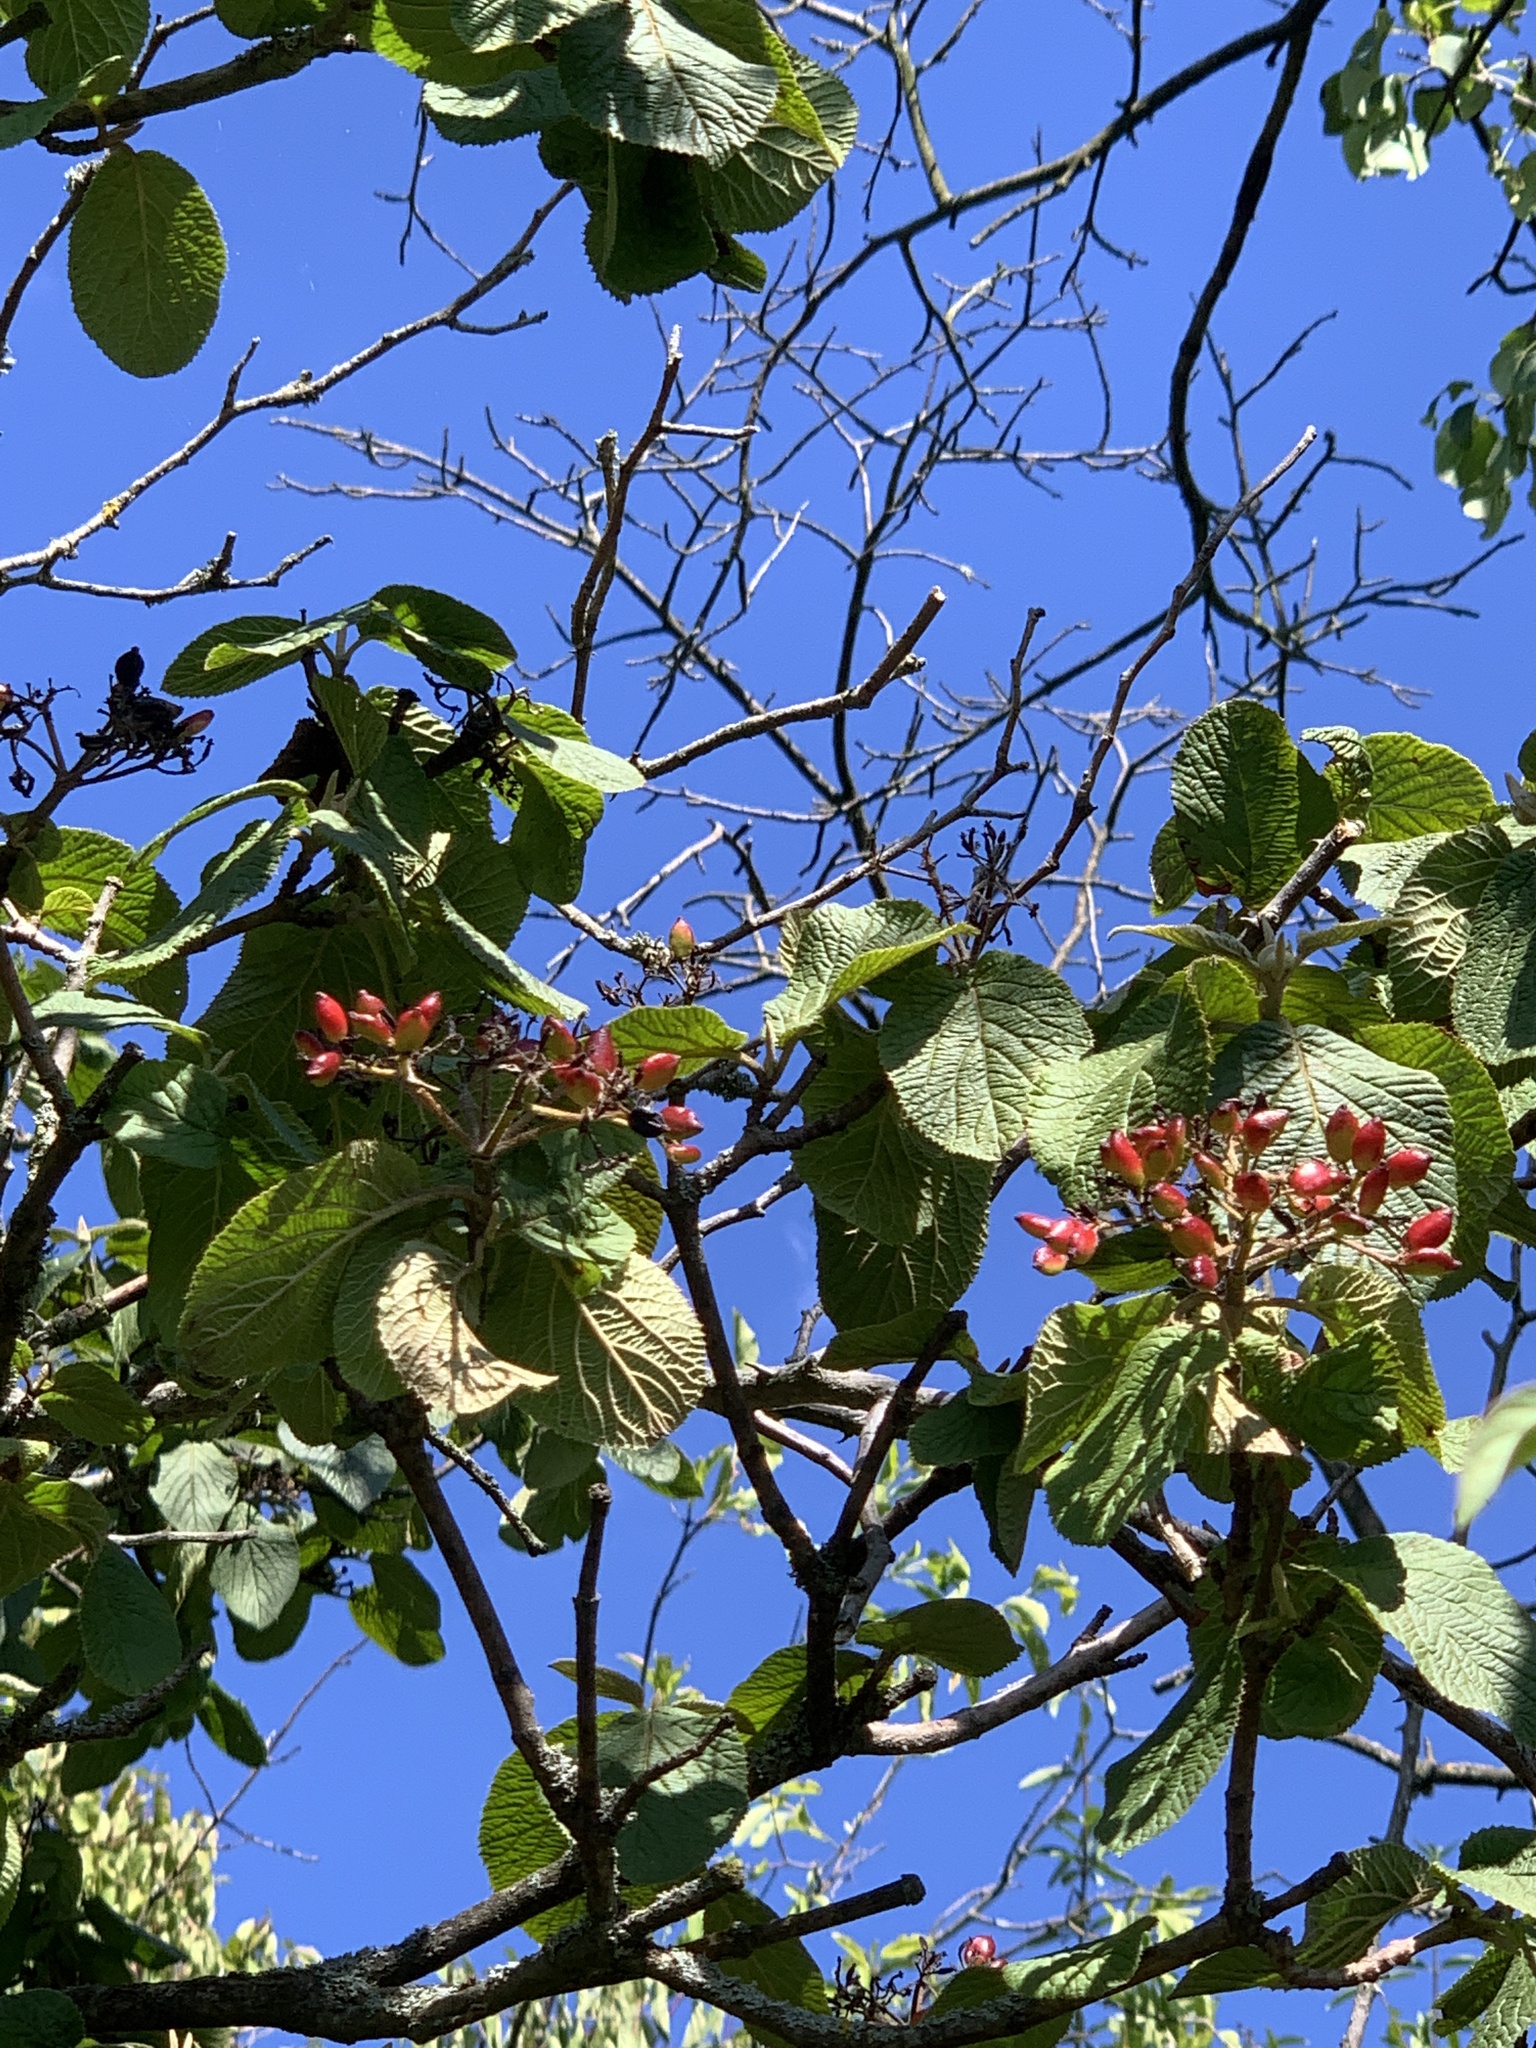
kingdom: Plantae
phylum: Tracheophyta
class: Magnoliopsida
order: Dipsacales
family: Viburnaceae
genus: Viburnum
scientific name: Viburnum lantana
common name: Wayfaring tree
